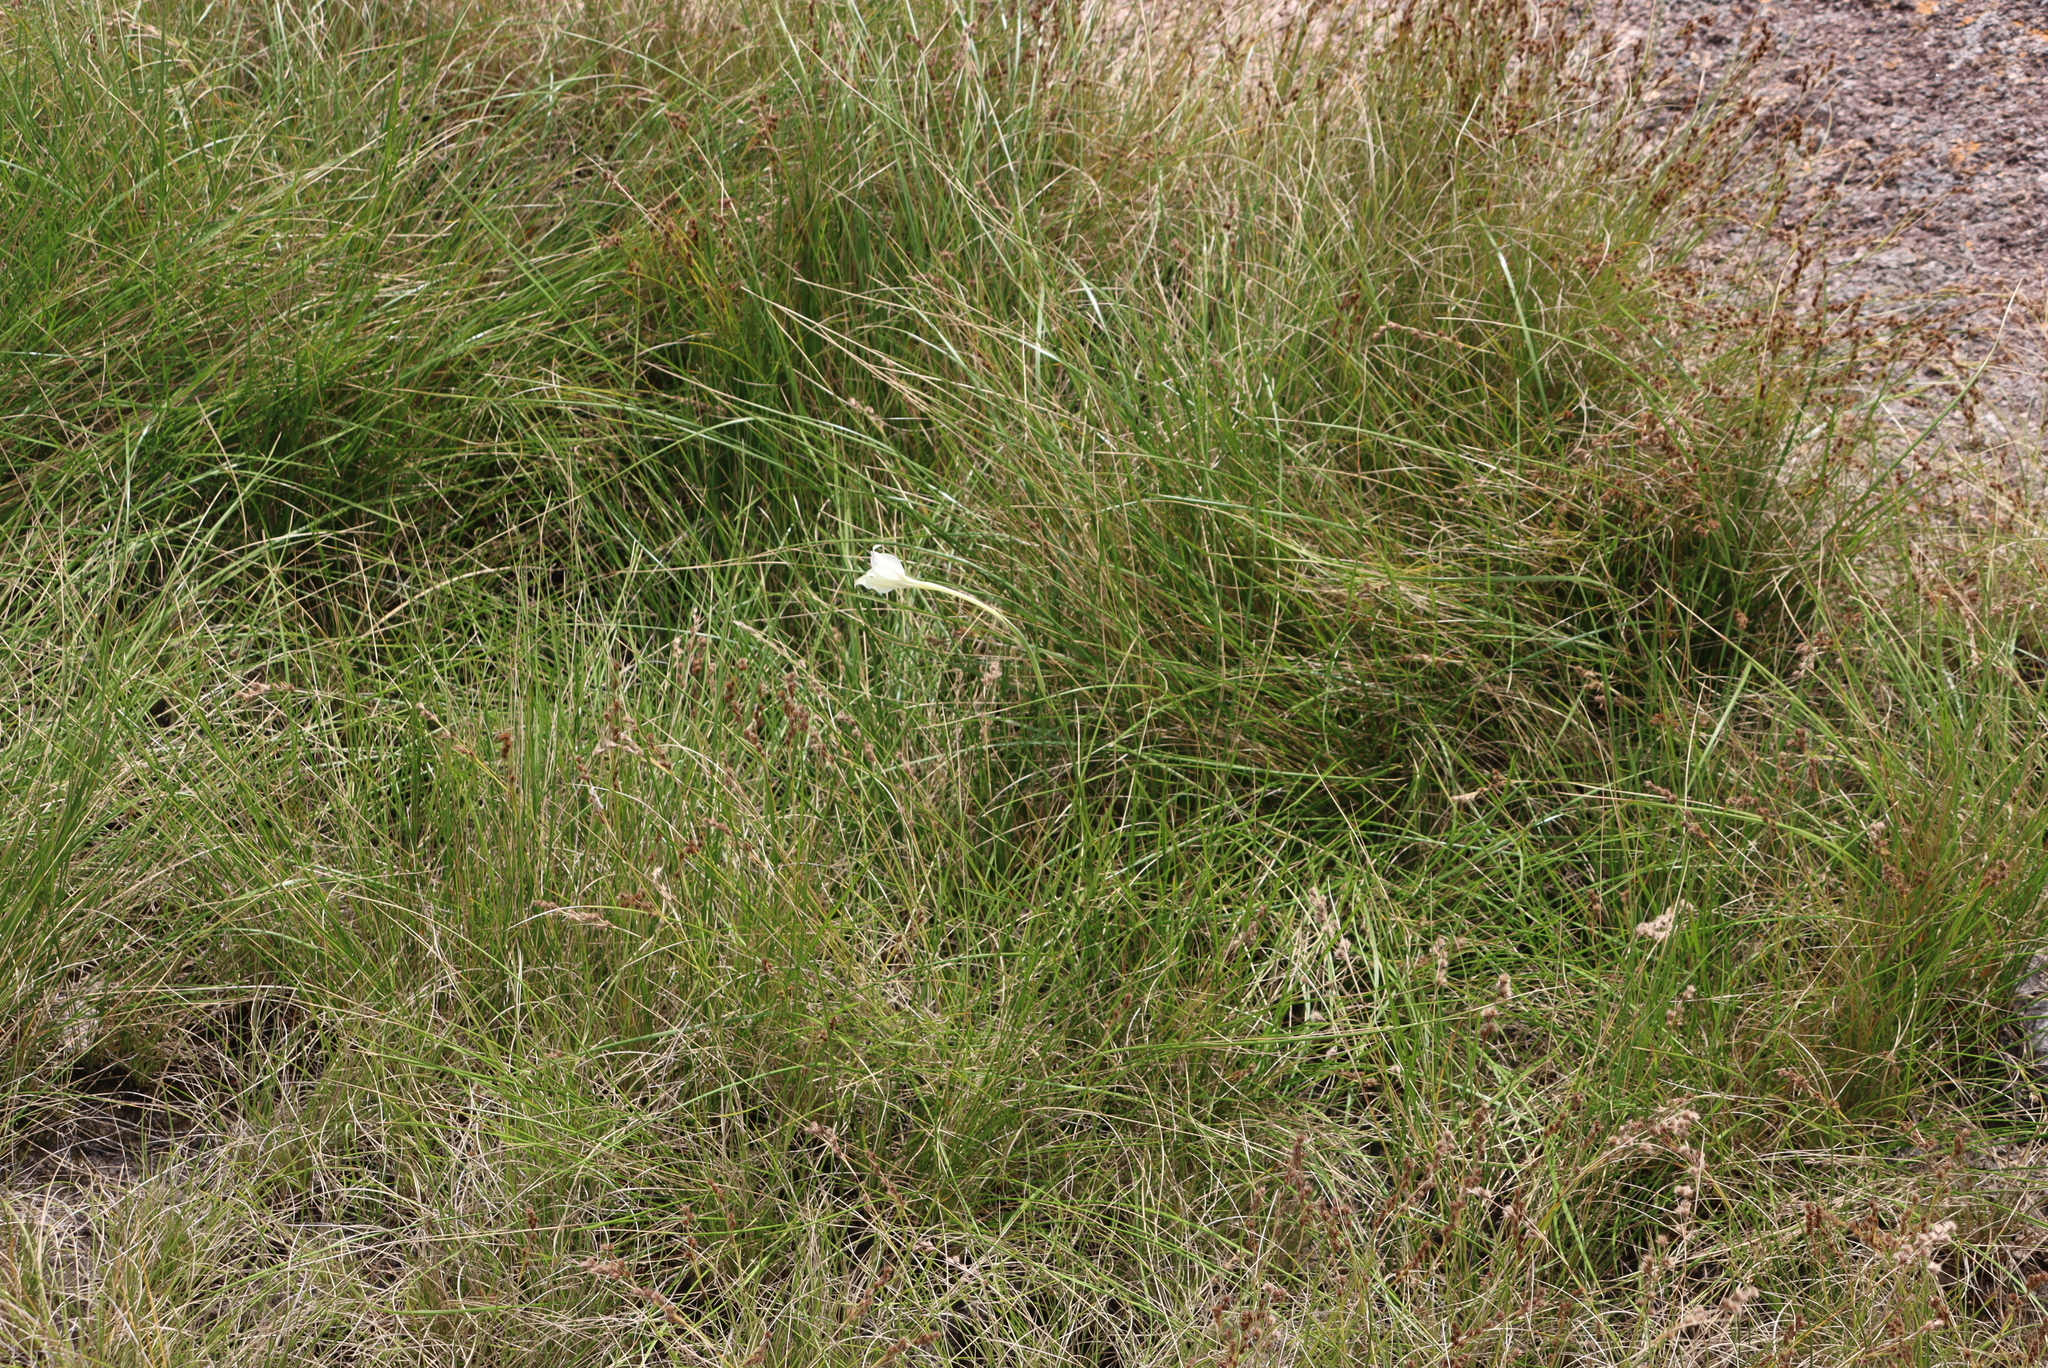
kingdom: Plantae
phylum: Tracheophyta
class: Liliopsida
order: Asparagales
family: Iridaceae
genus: Gladiolus
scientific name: Gladiolus longicollis
